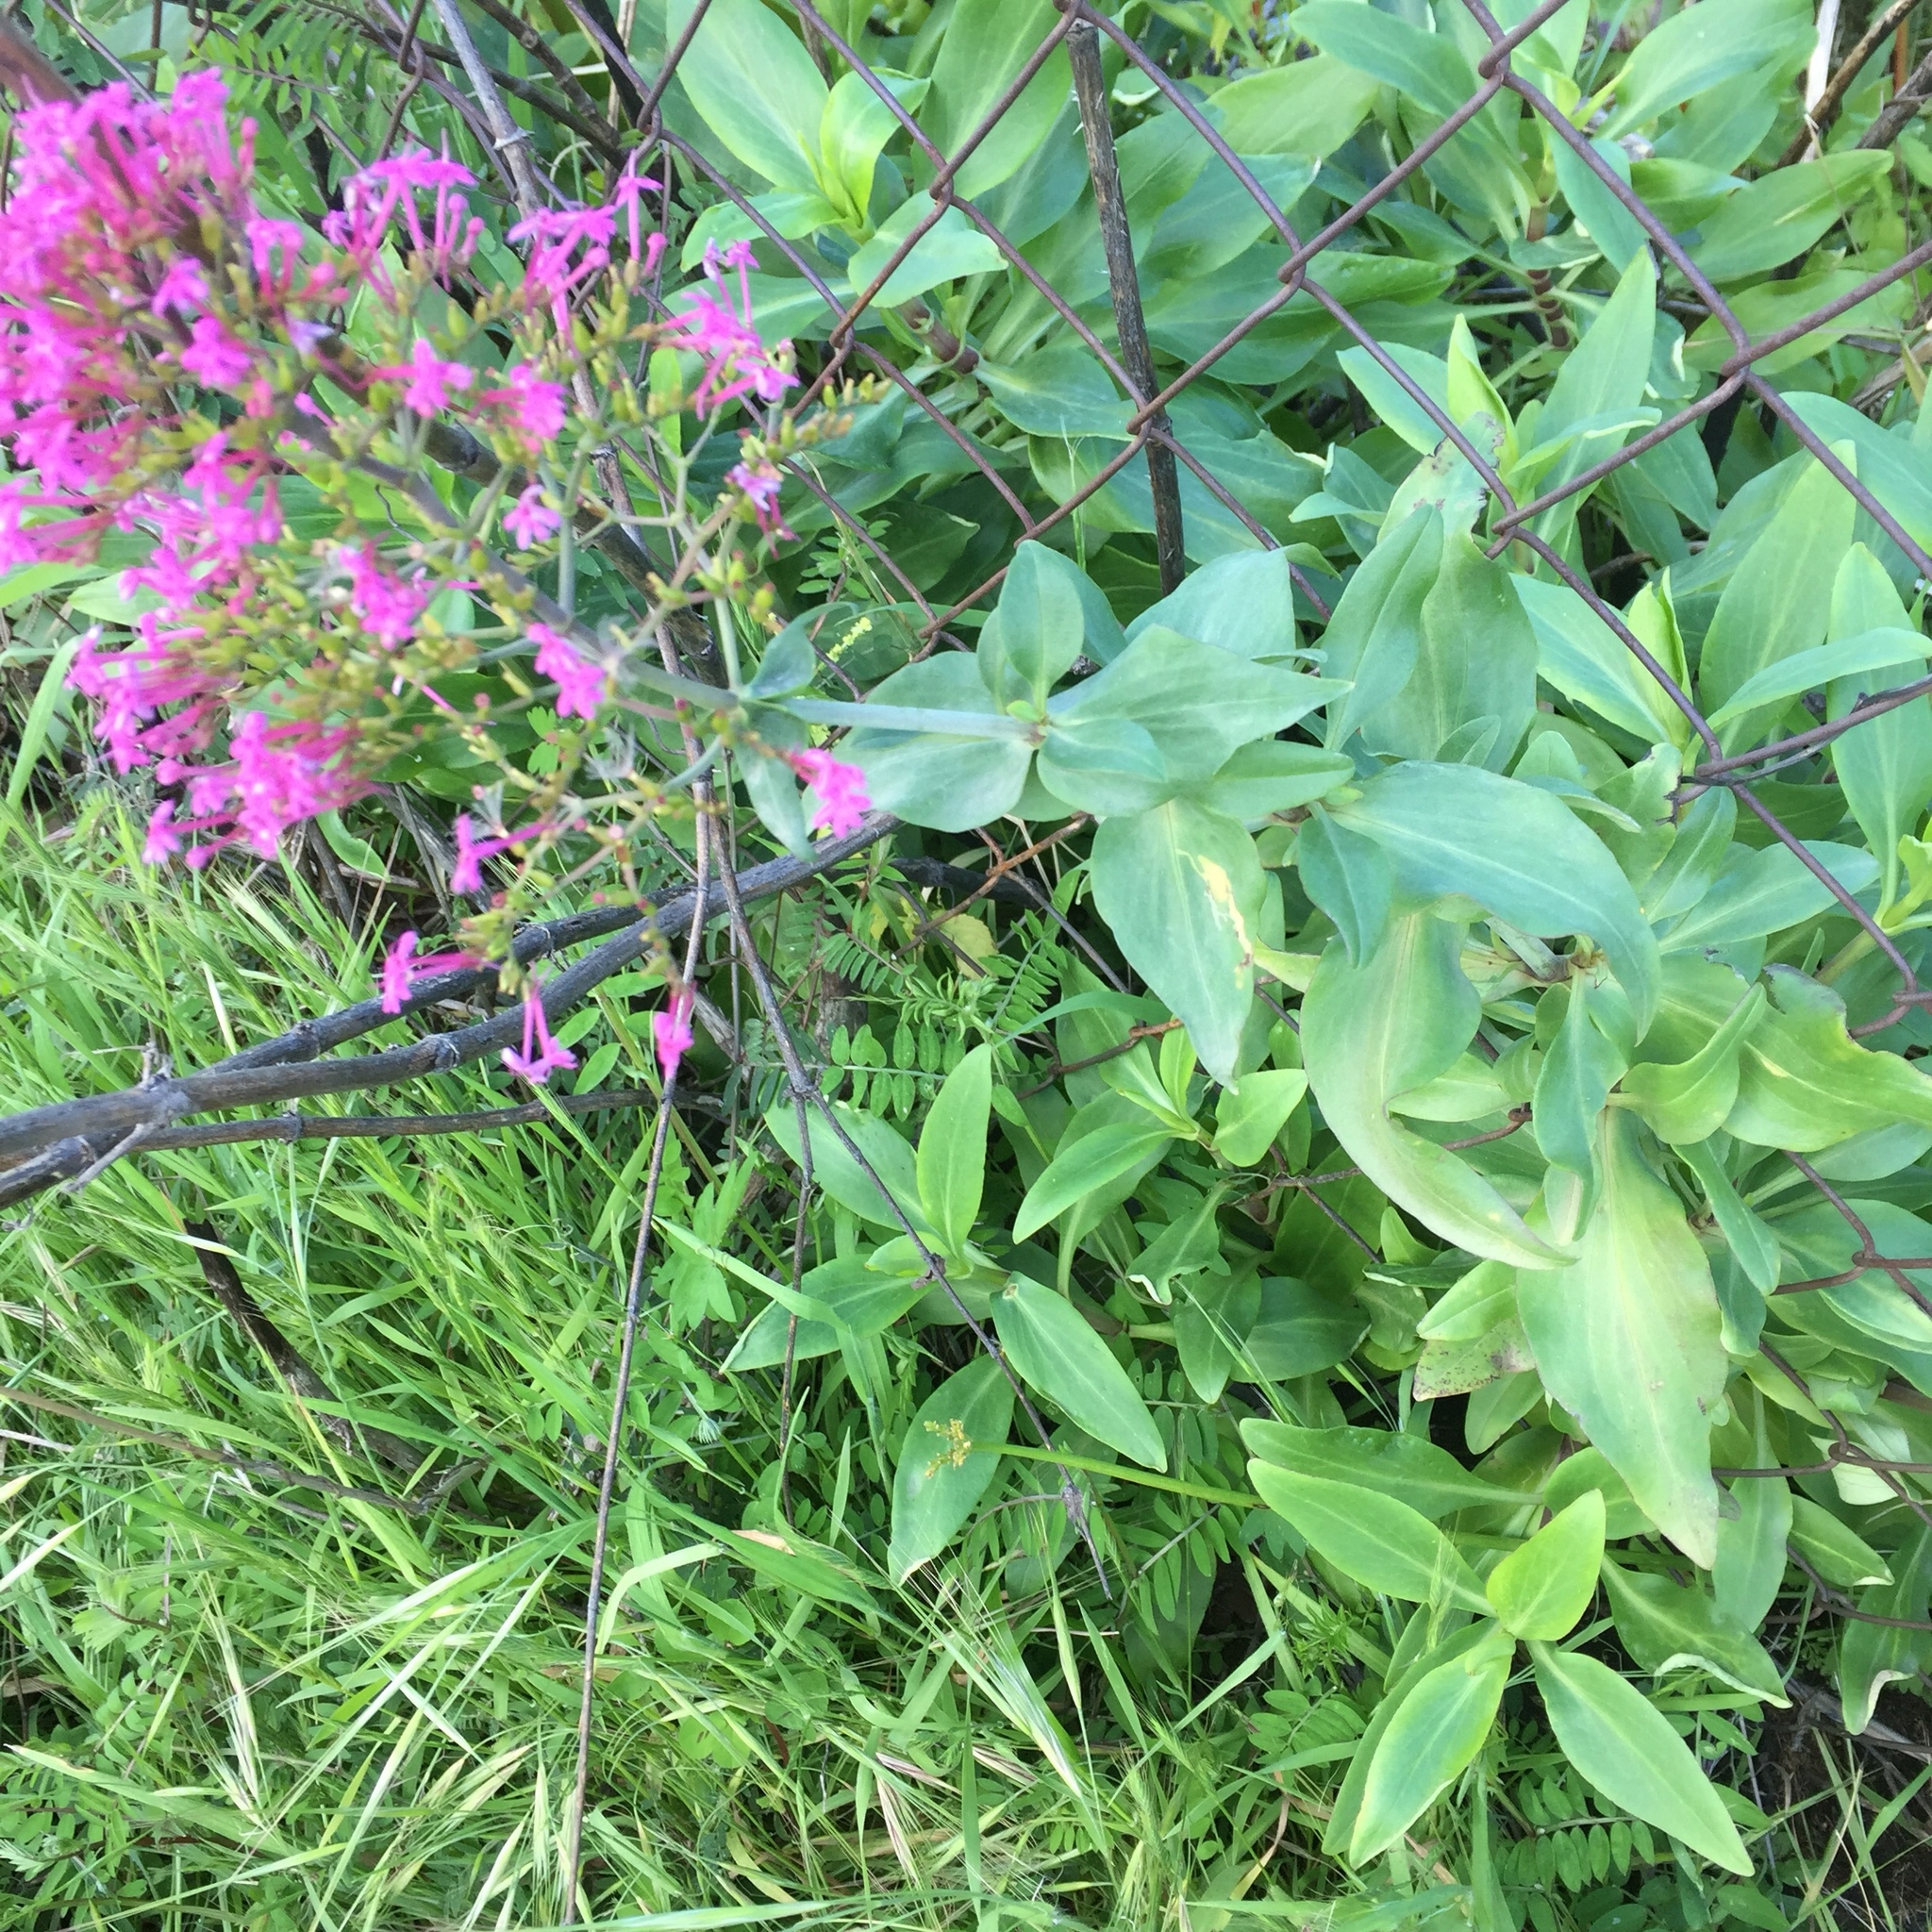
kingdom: Plantae
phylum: Tracheophyta
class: Magnoliopsida
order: Dipsacales
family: Caprifoliaceae
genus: Centranthus
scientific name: Centranthus ruber
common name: Red valerian
